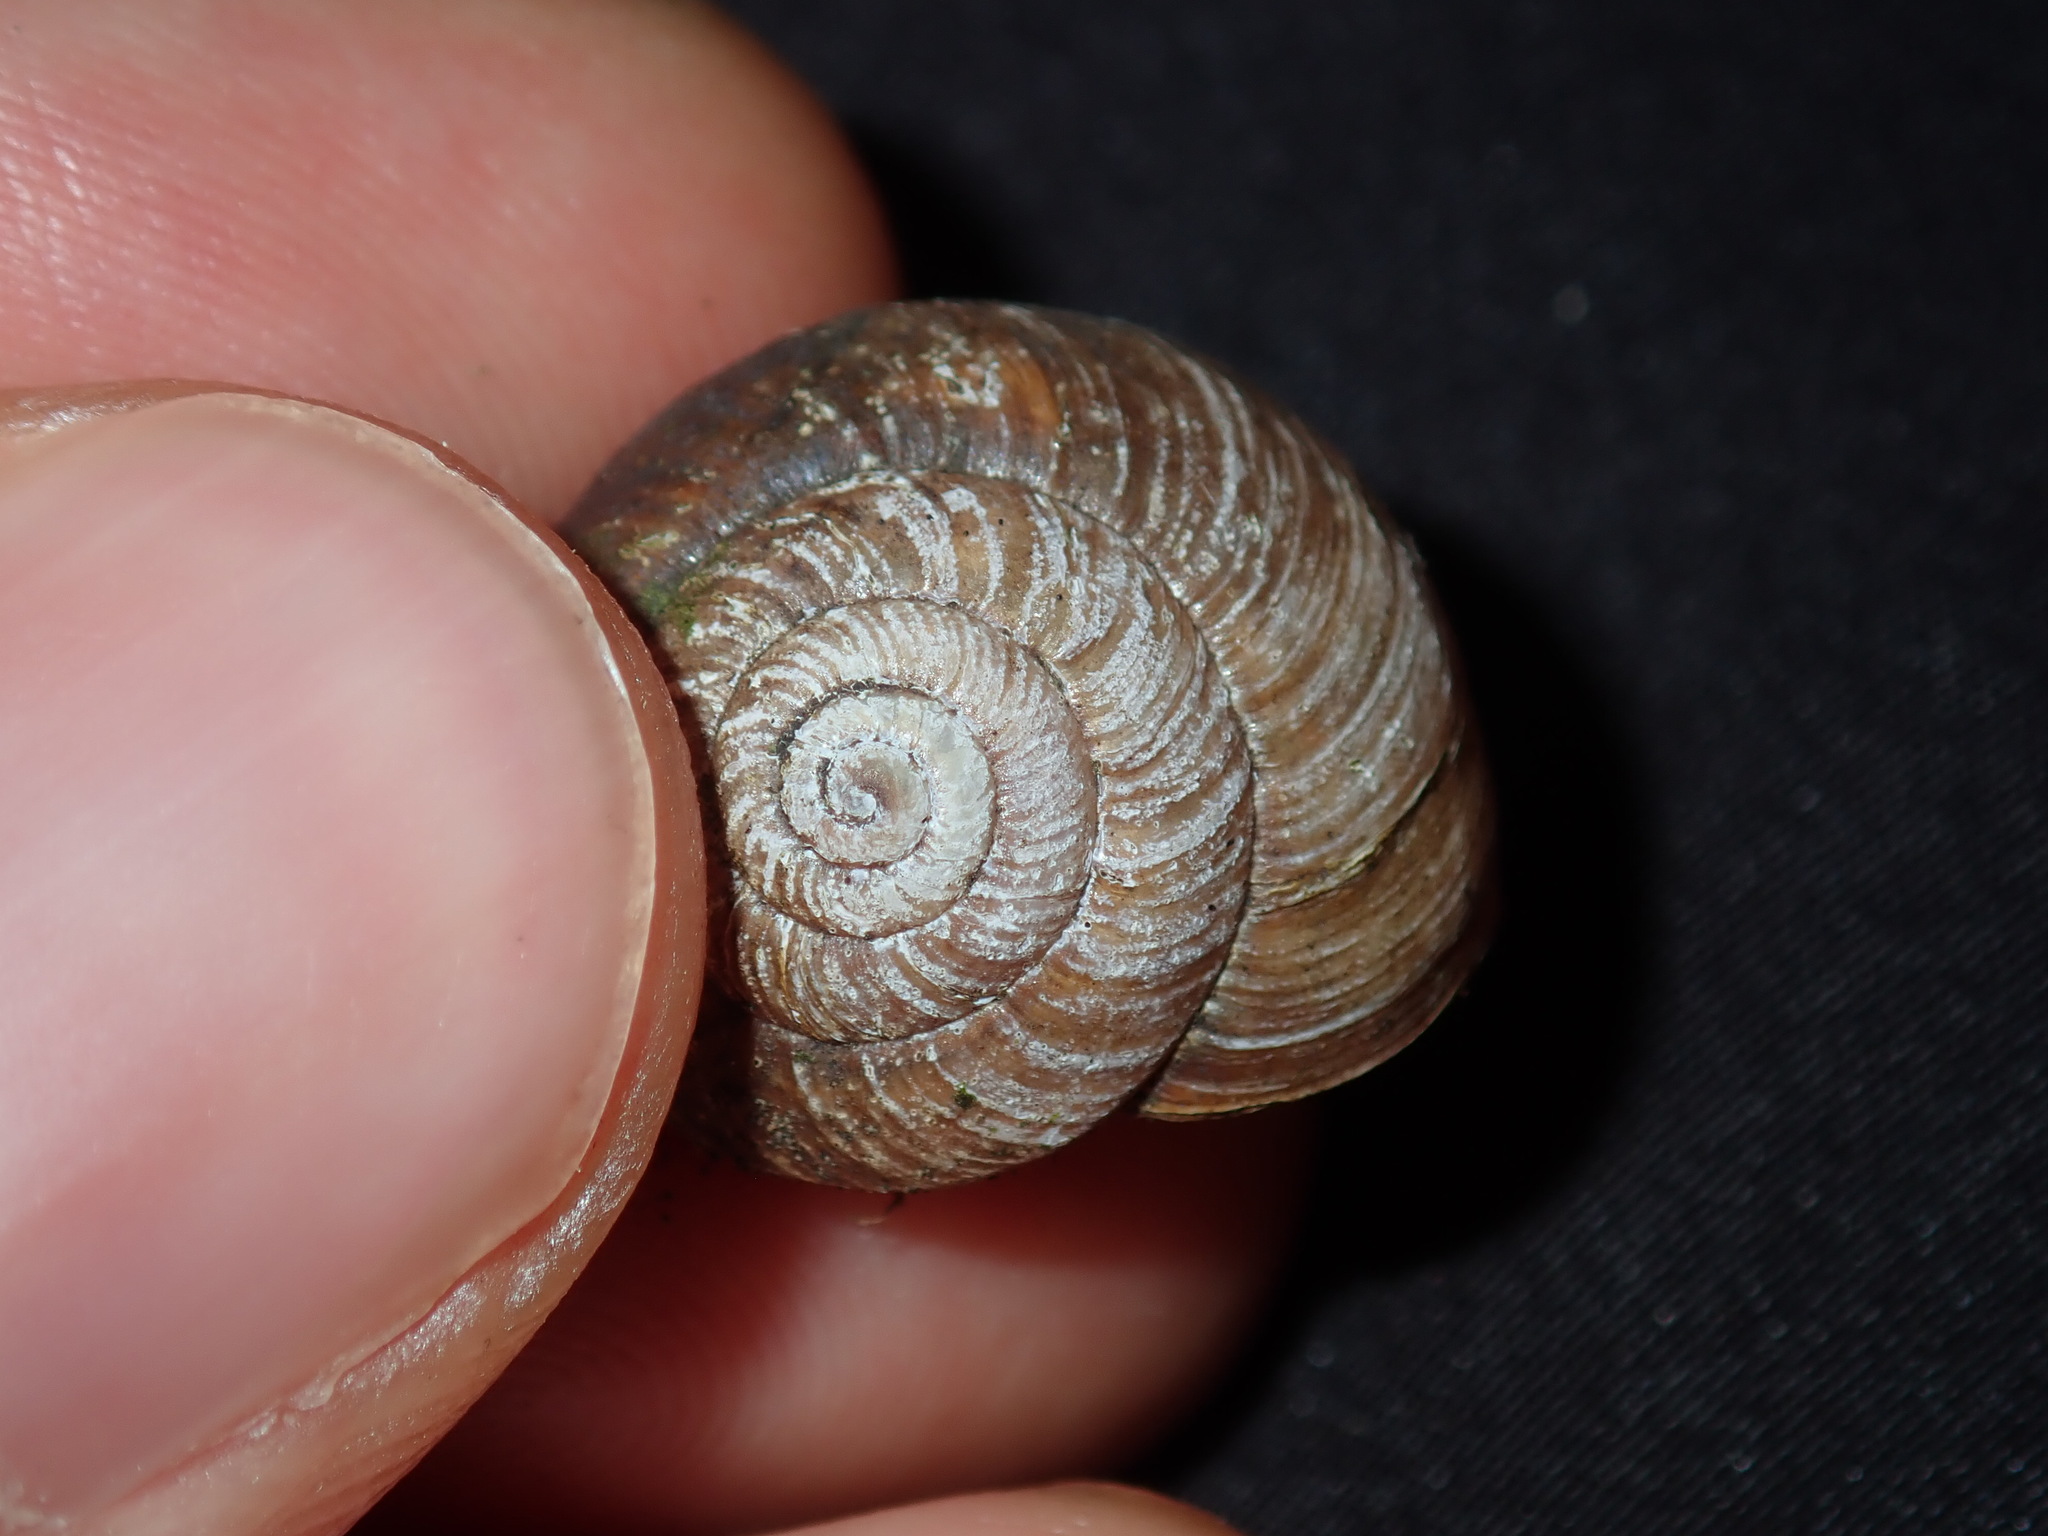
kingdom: Animalia
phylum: Mollusca
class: Gastropoda
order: Stylommatophora
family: Camaenidae
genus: Sauroconcha
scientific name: Sauroconcha sheai
